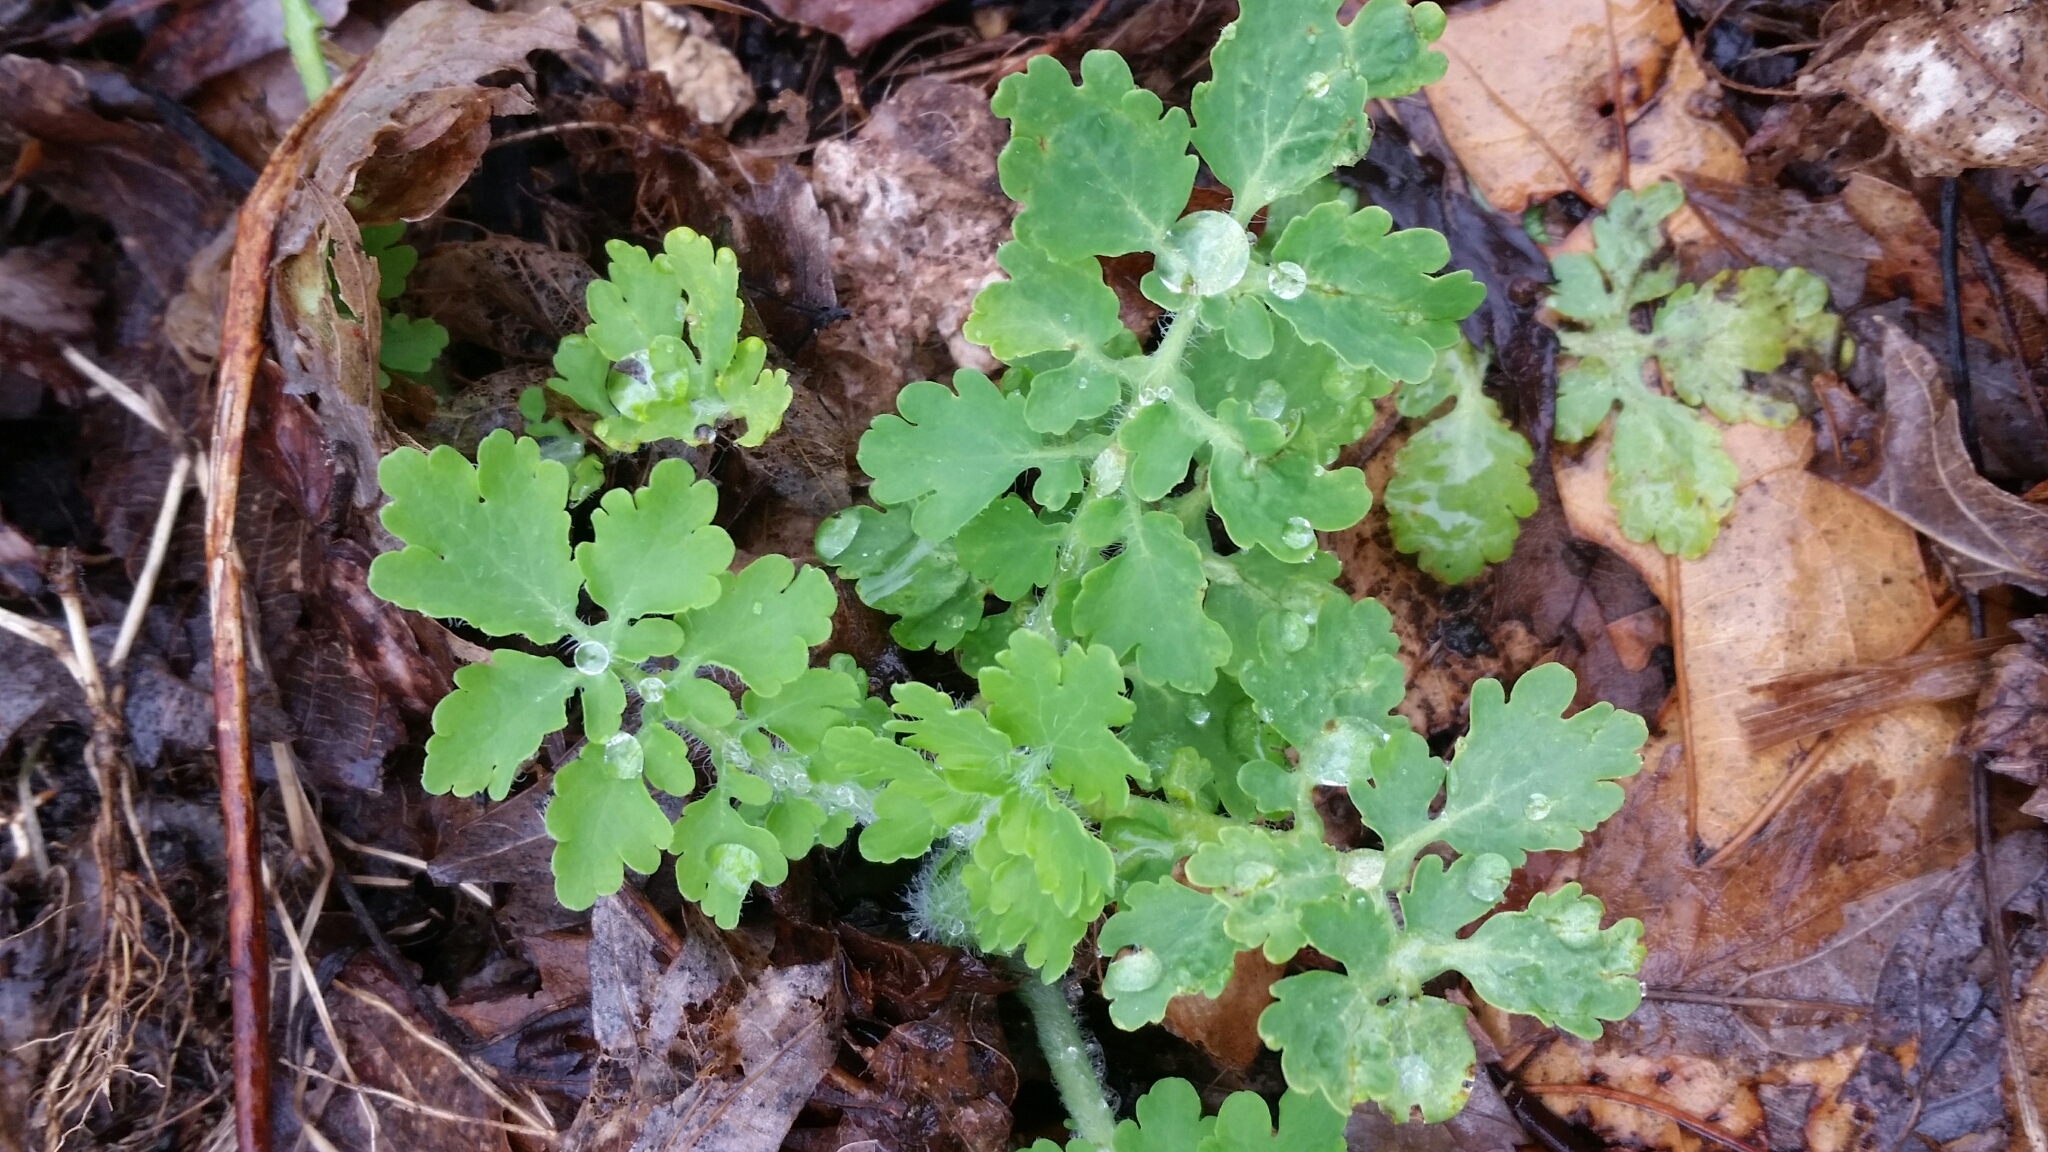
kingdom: Plantae
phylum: Tracheophyta
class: Magnoliopsida
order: Ranunculales
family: Papaveraceae
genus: Chelidonium
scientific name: Chelidonium majus
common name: Greater celandine
